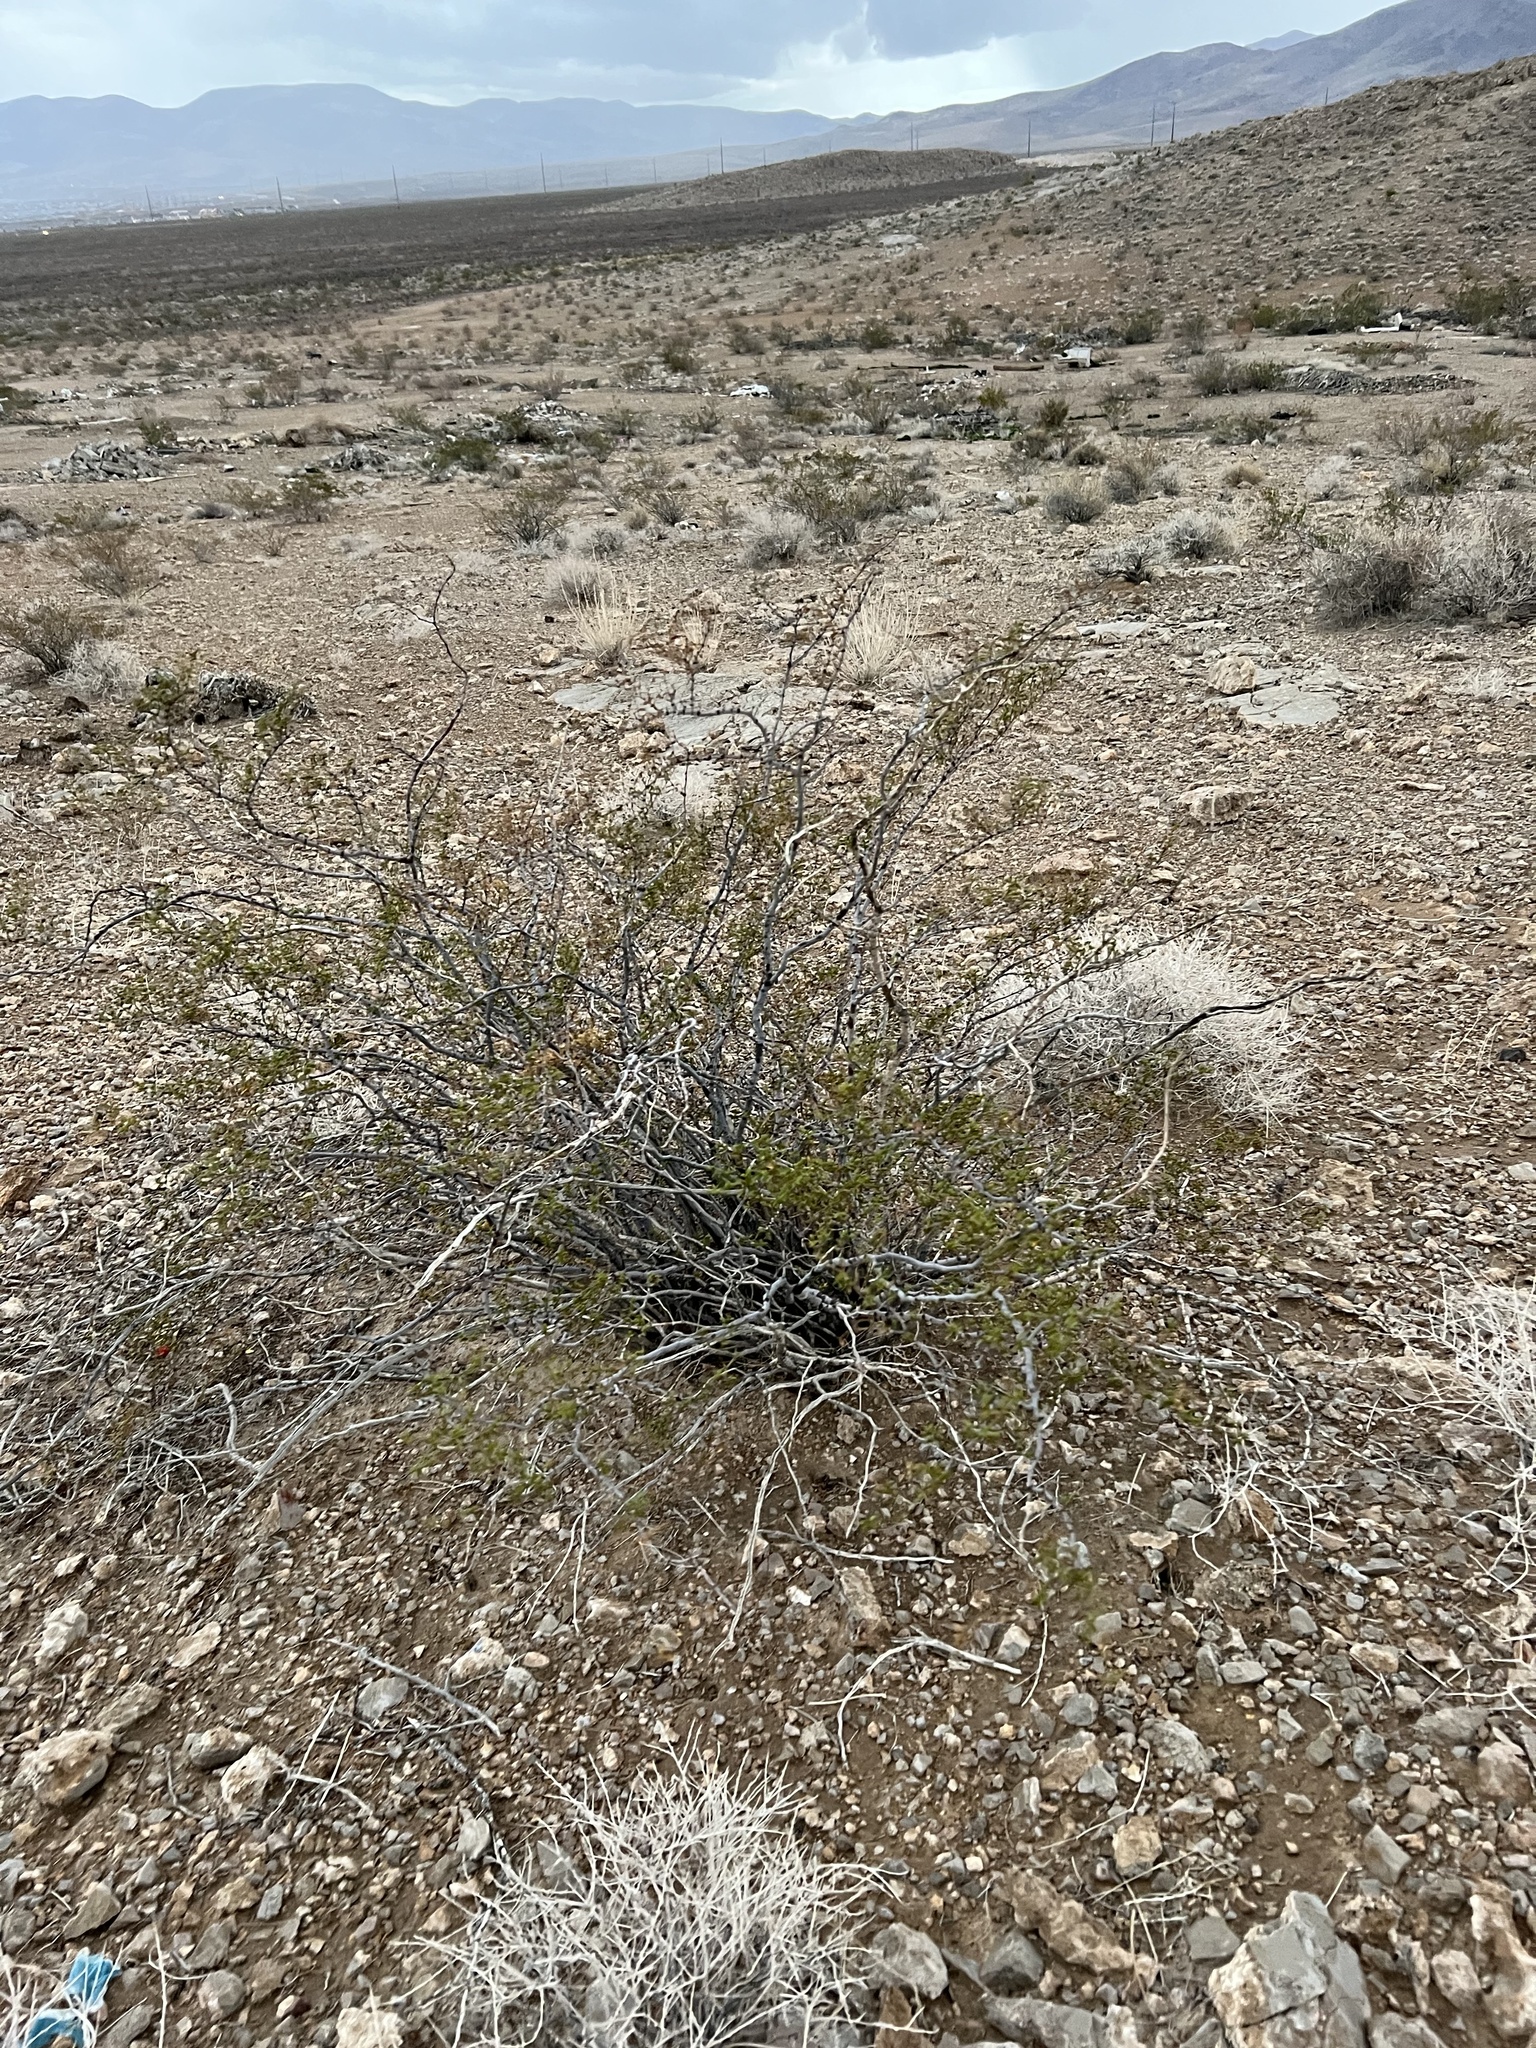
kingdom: Plantae
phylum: Tracheophyta
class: Magnoliopsida
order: Zygophyllales
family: Zygophyllaceae
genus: Larrea
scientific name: Larrea tridentata
